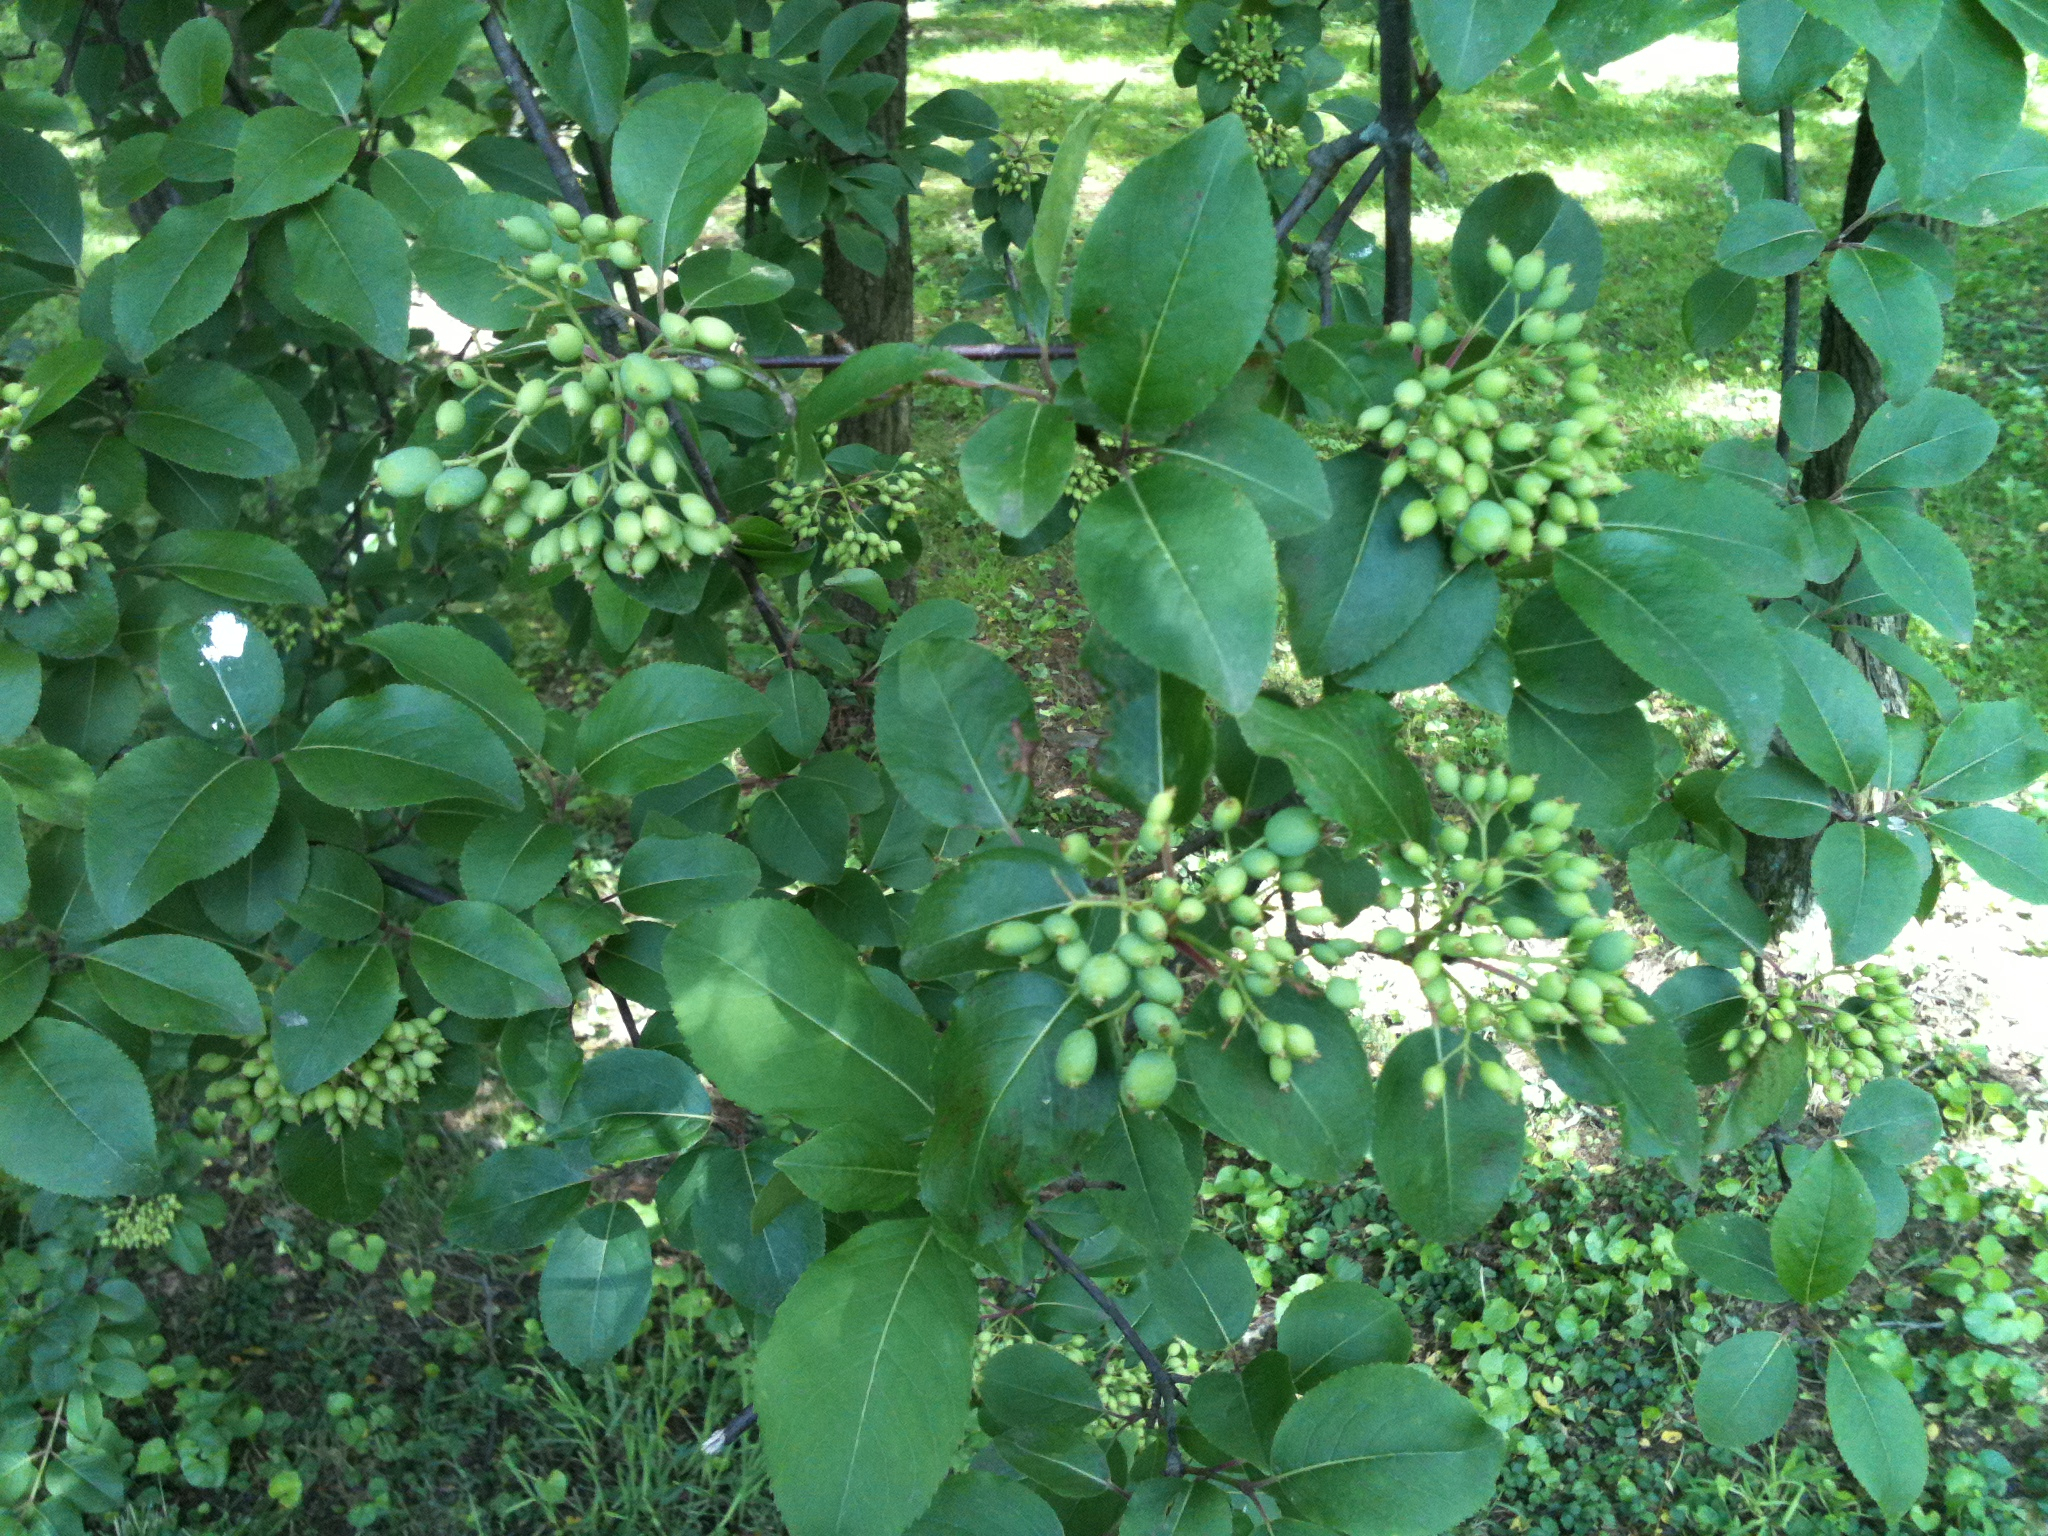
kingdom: Plantae
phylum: Tracheophyta
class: Magnoliopsida
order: Dipsacales
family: Viburnaceae
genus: Viburnum
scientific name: Viburnum prunifolium
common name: Black haw
